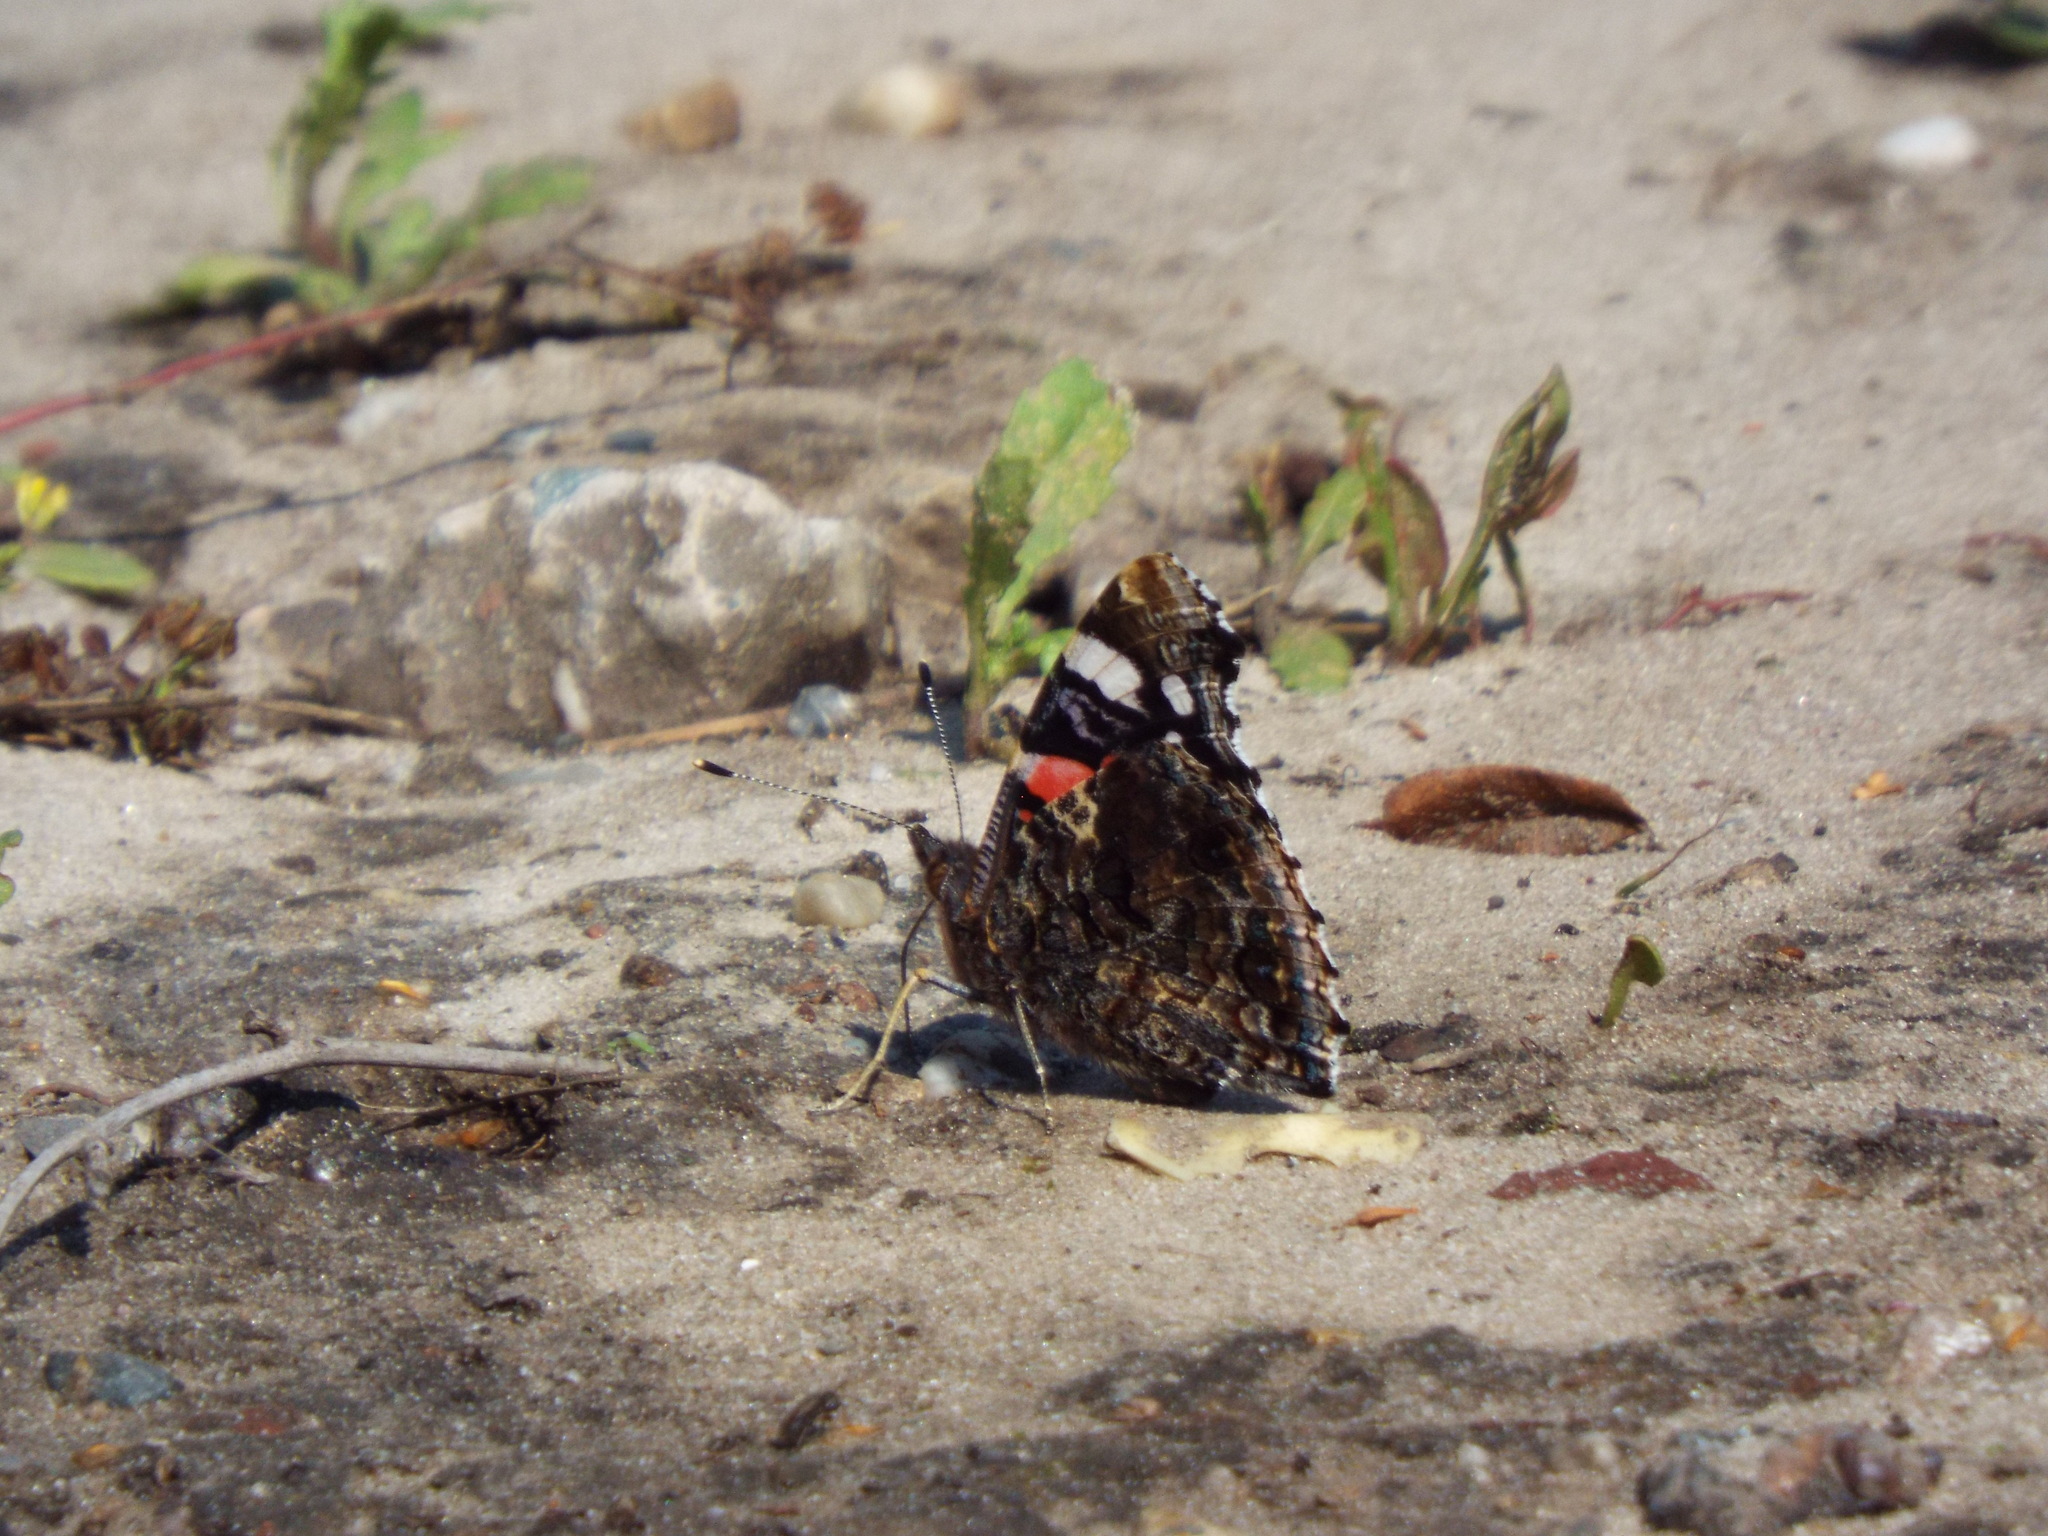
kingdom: Animalia
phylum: Arthropoda
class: Insecta
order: Lepidoptera
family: Nymphalidae
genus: Vanessa
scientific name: Vanessa atalanta
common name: Red admiral
